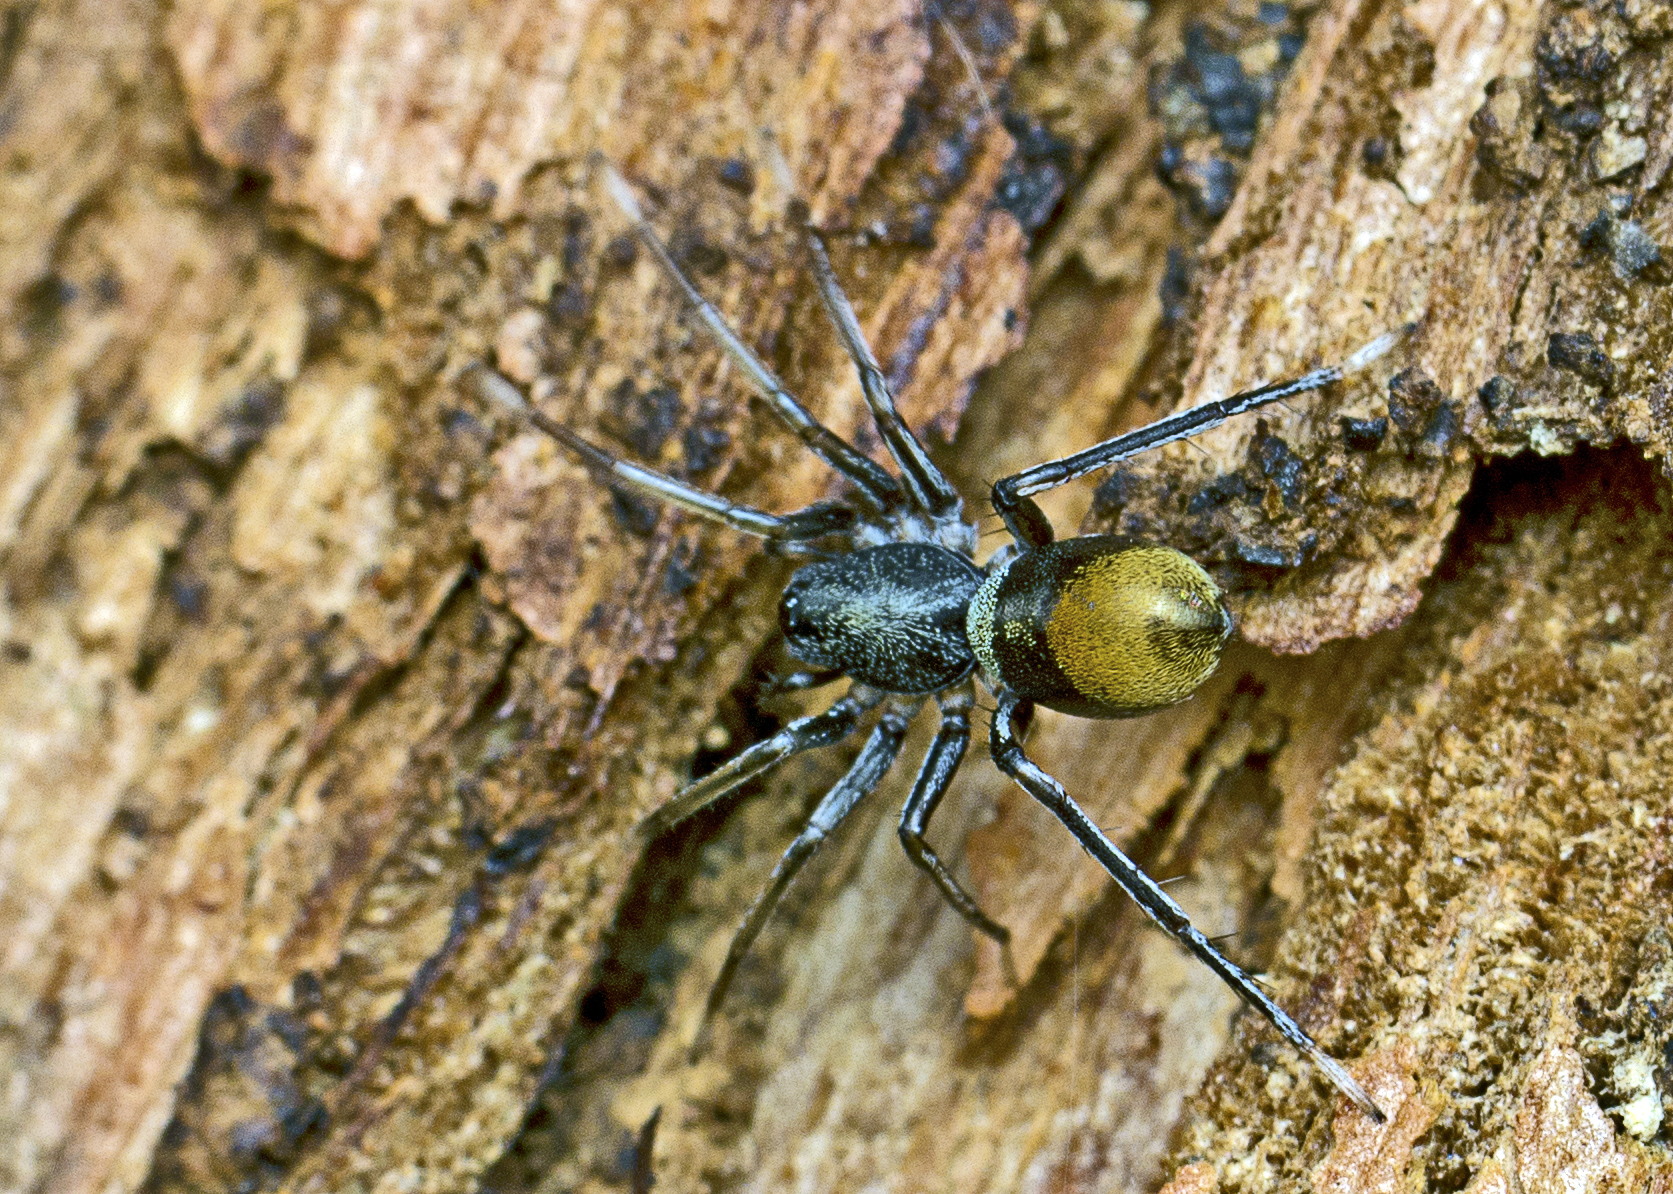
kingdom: Animalia
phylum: Arthropoda
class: Arachnida
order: Araneae
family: Corinnidae
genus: Nyssus
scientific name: Nyssus luteofinis
